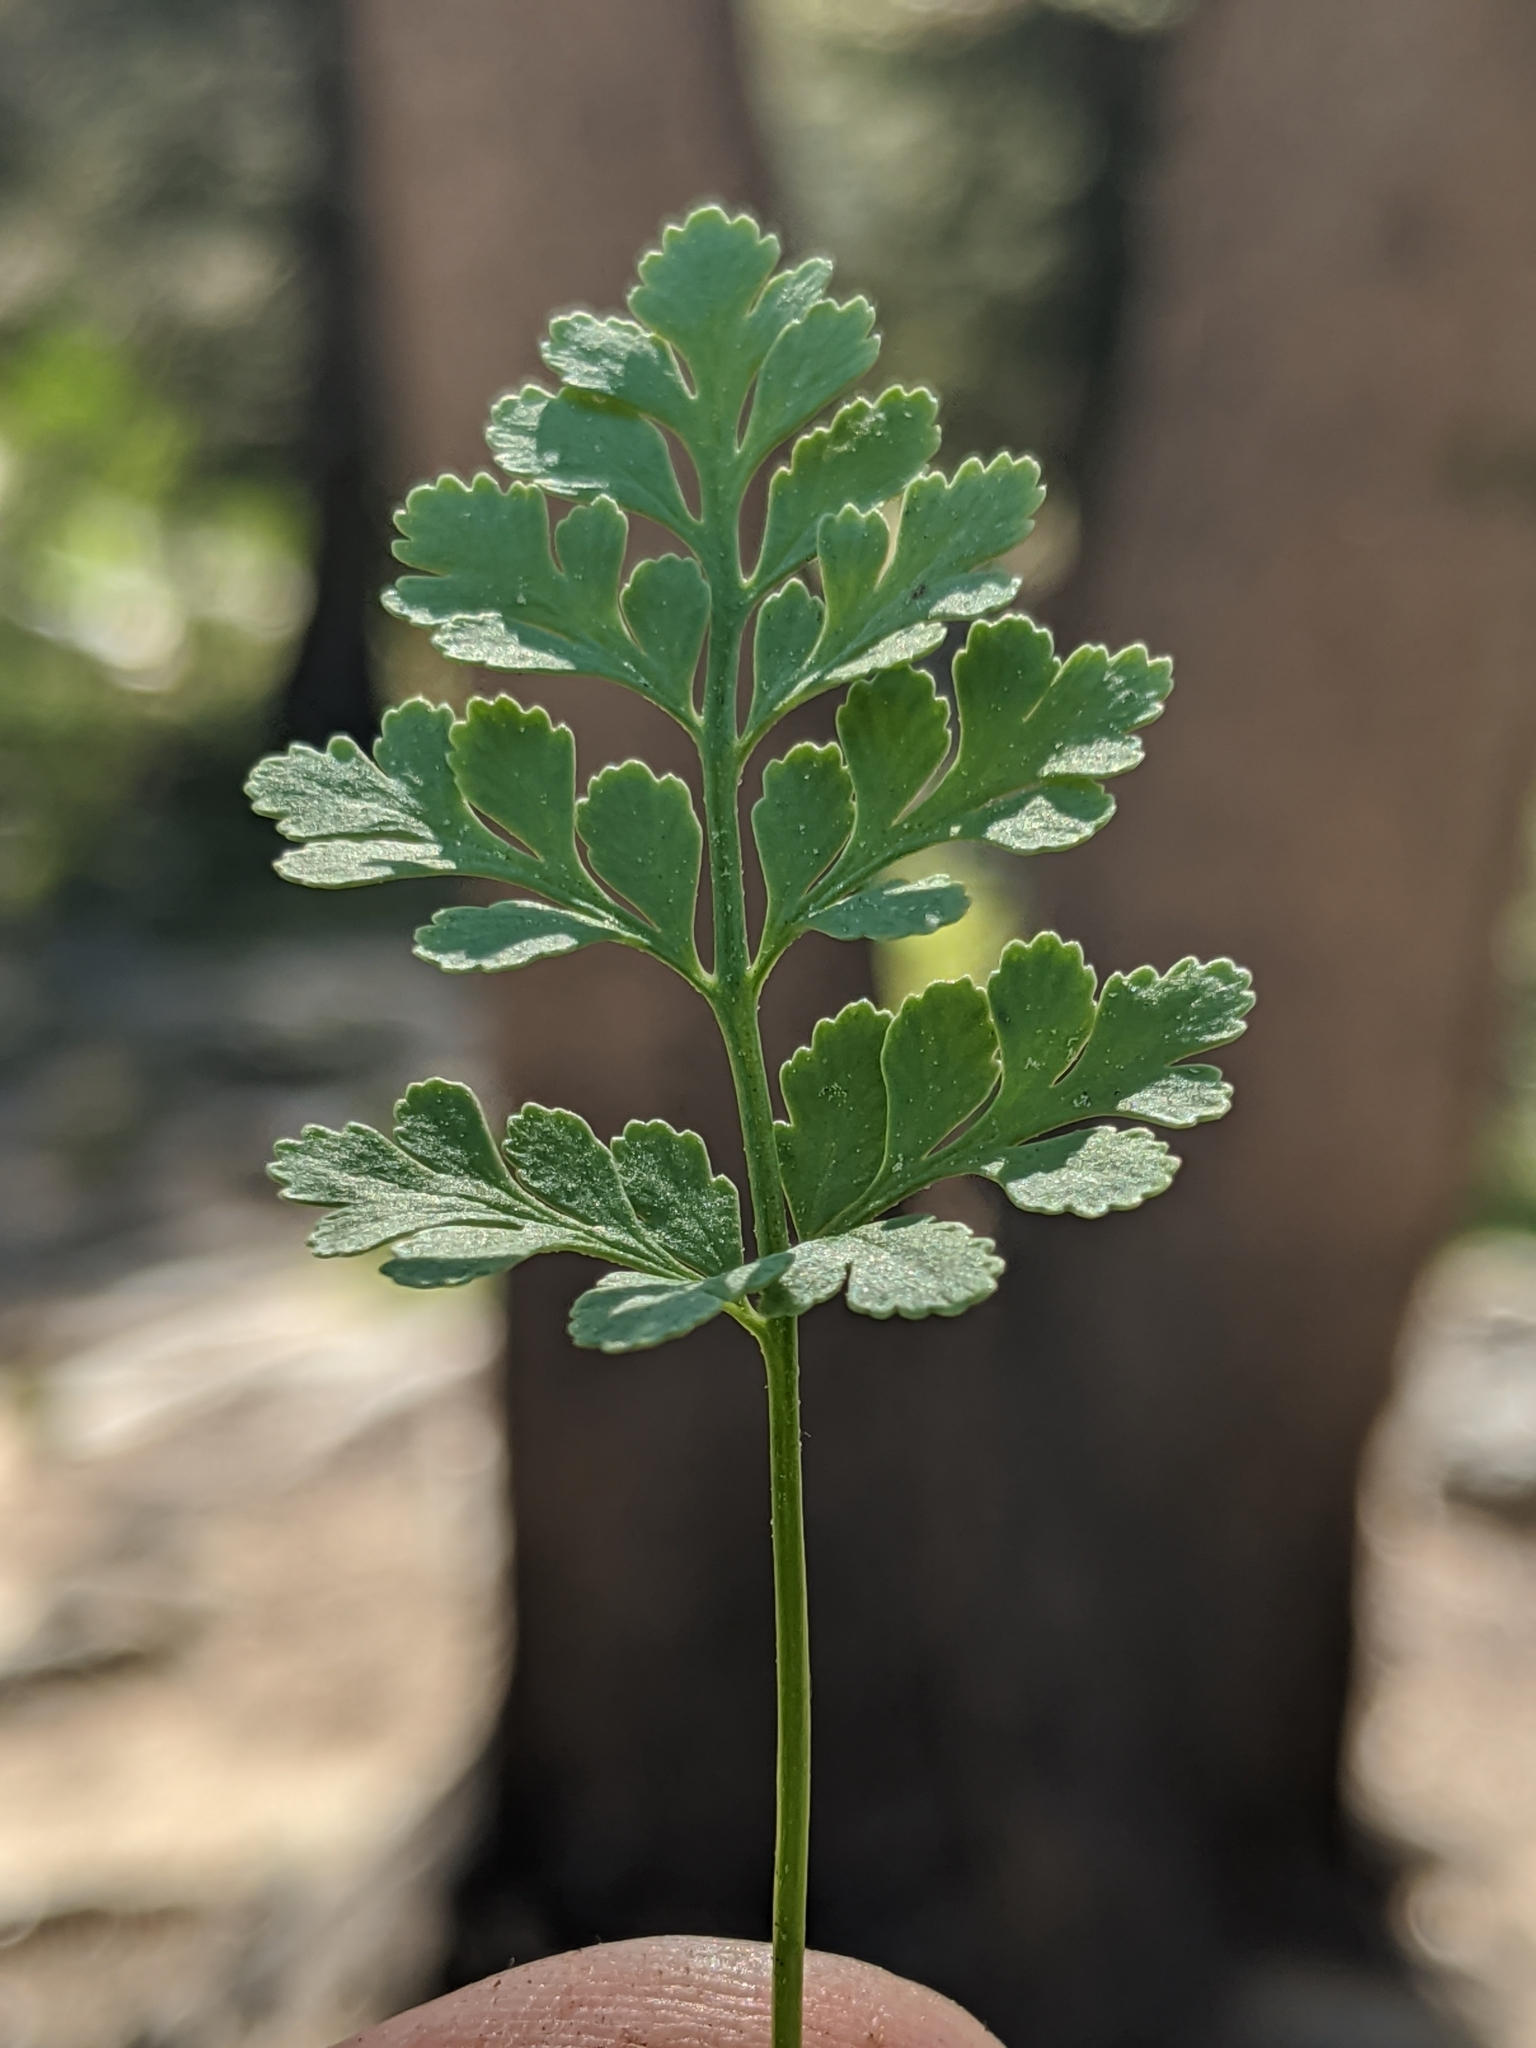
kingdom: Plantae
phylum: Tracheophyta
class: Polypodiopsida
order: Polypodiales
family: Pteridaceae
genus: Cryptogramma
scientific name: Cryptogramma acrostichoides
